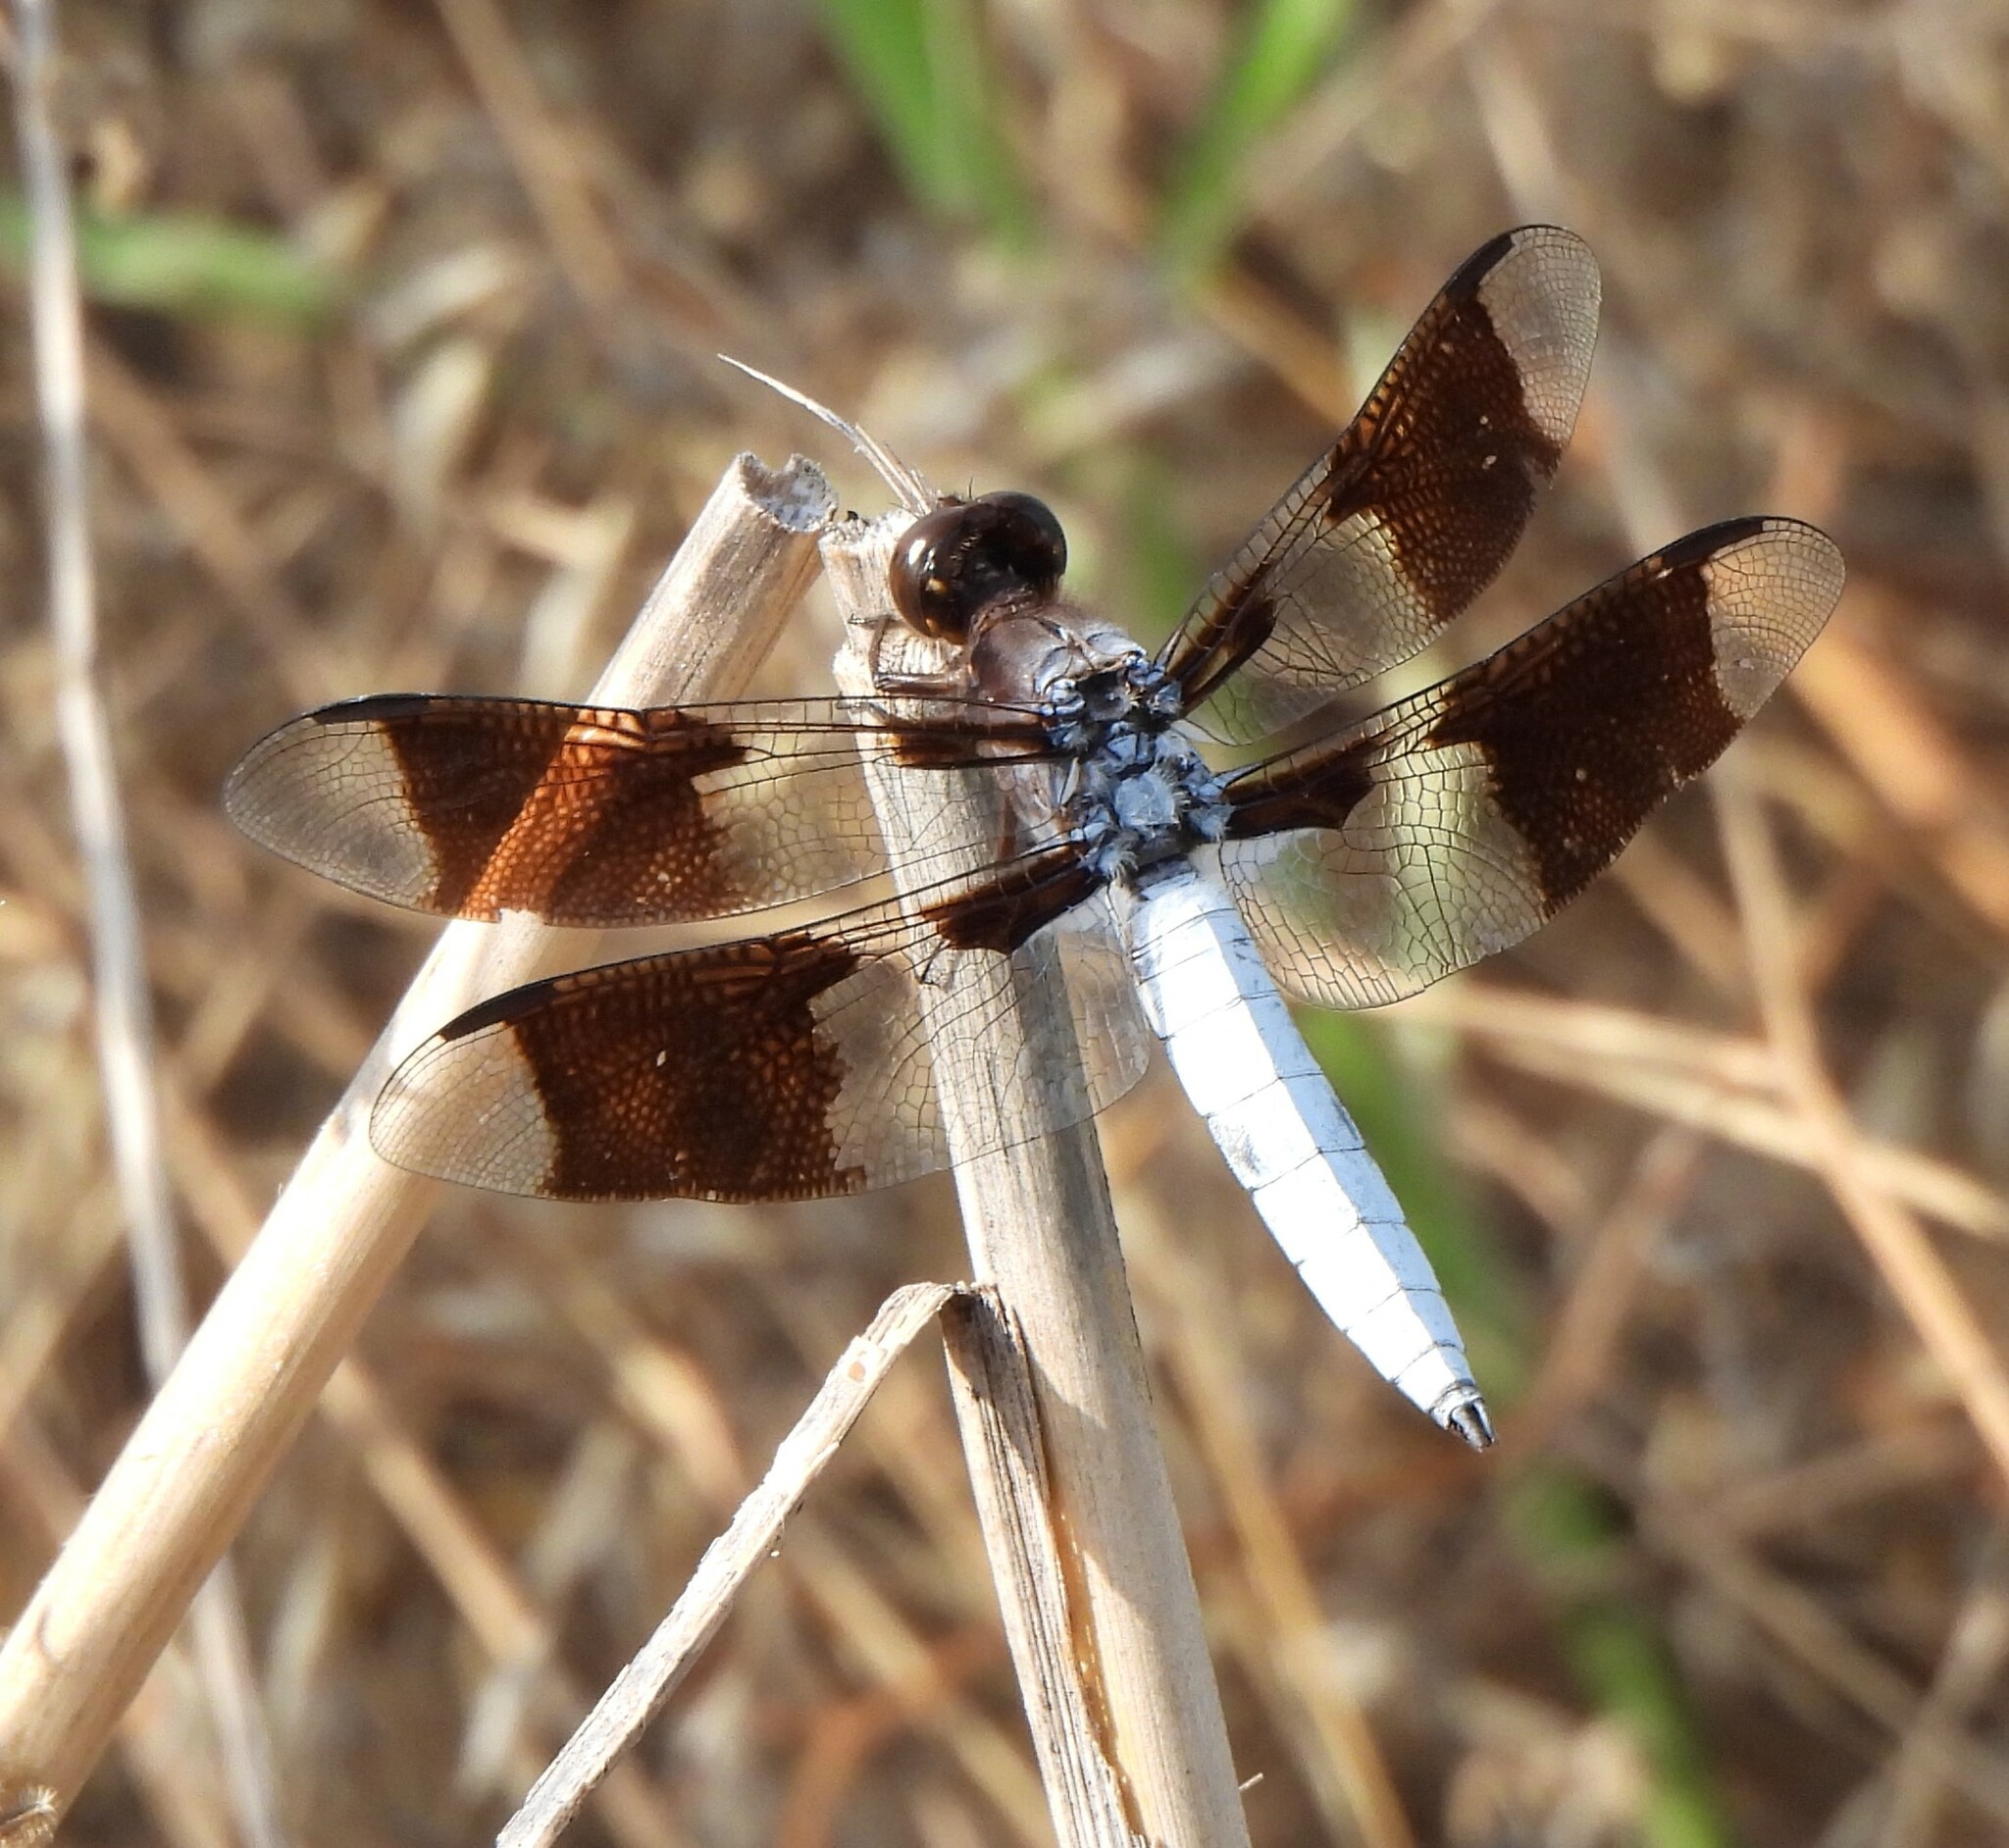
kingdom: Animalia
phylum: Arthropoda
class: Insecta
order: Odonata
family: Libellulidae
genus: Plathemis
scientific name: Plathemis lydia
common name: Common whitetail
